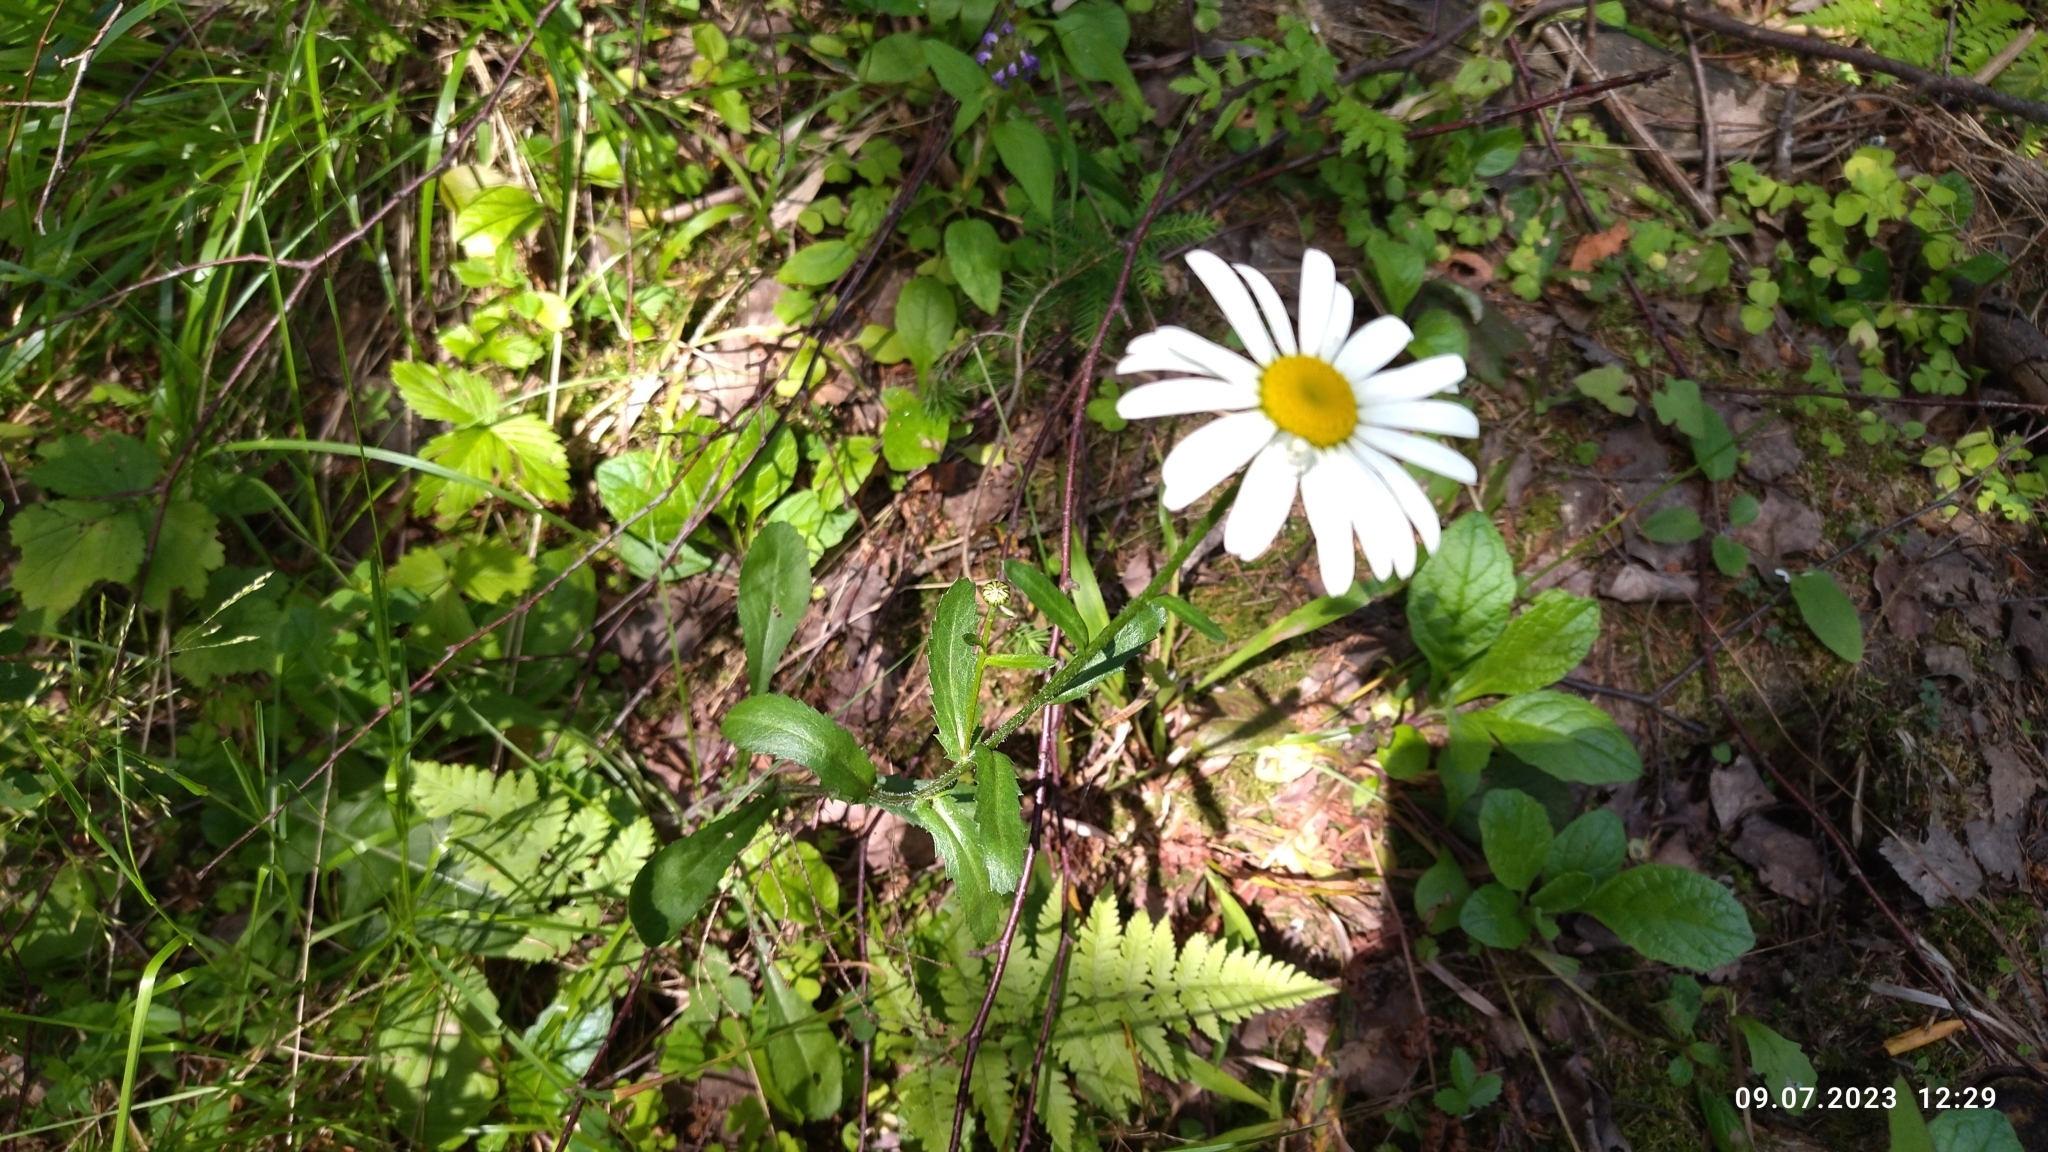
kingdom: Plantae
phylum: Tracheophyta
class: Magnoliopsida
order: Asterales
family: Asteraceae
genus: Leucanthemum
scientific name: Leucanthemum vulgare
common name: Oxeye daisy
